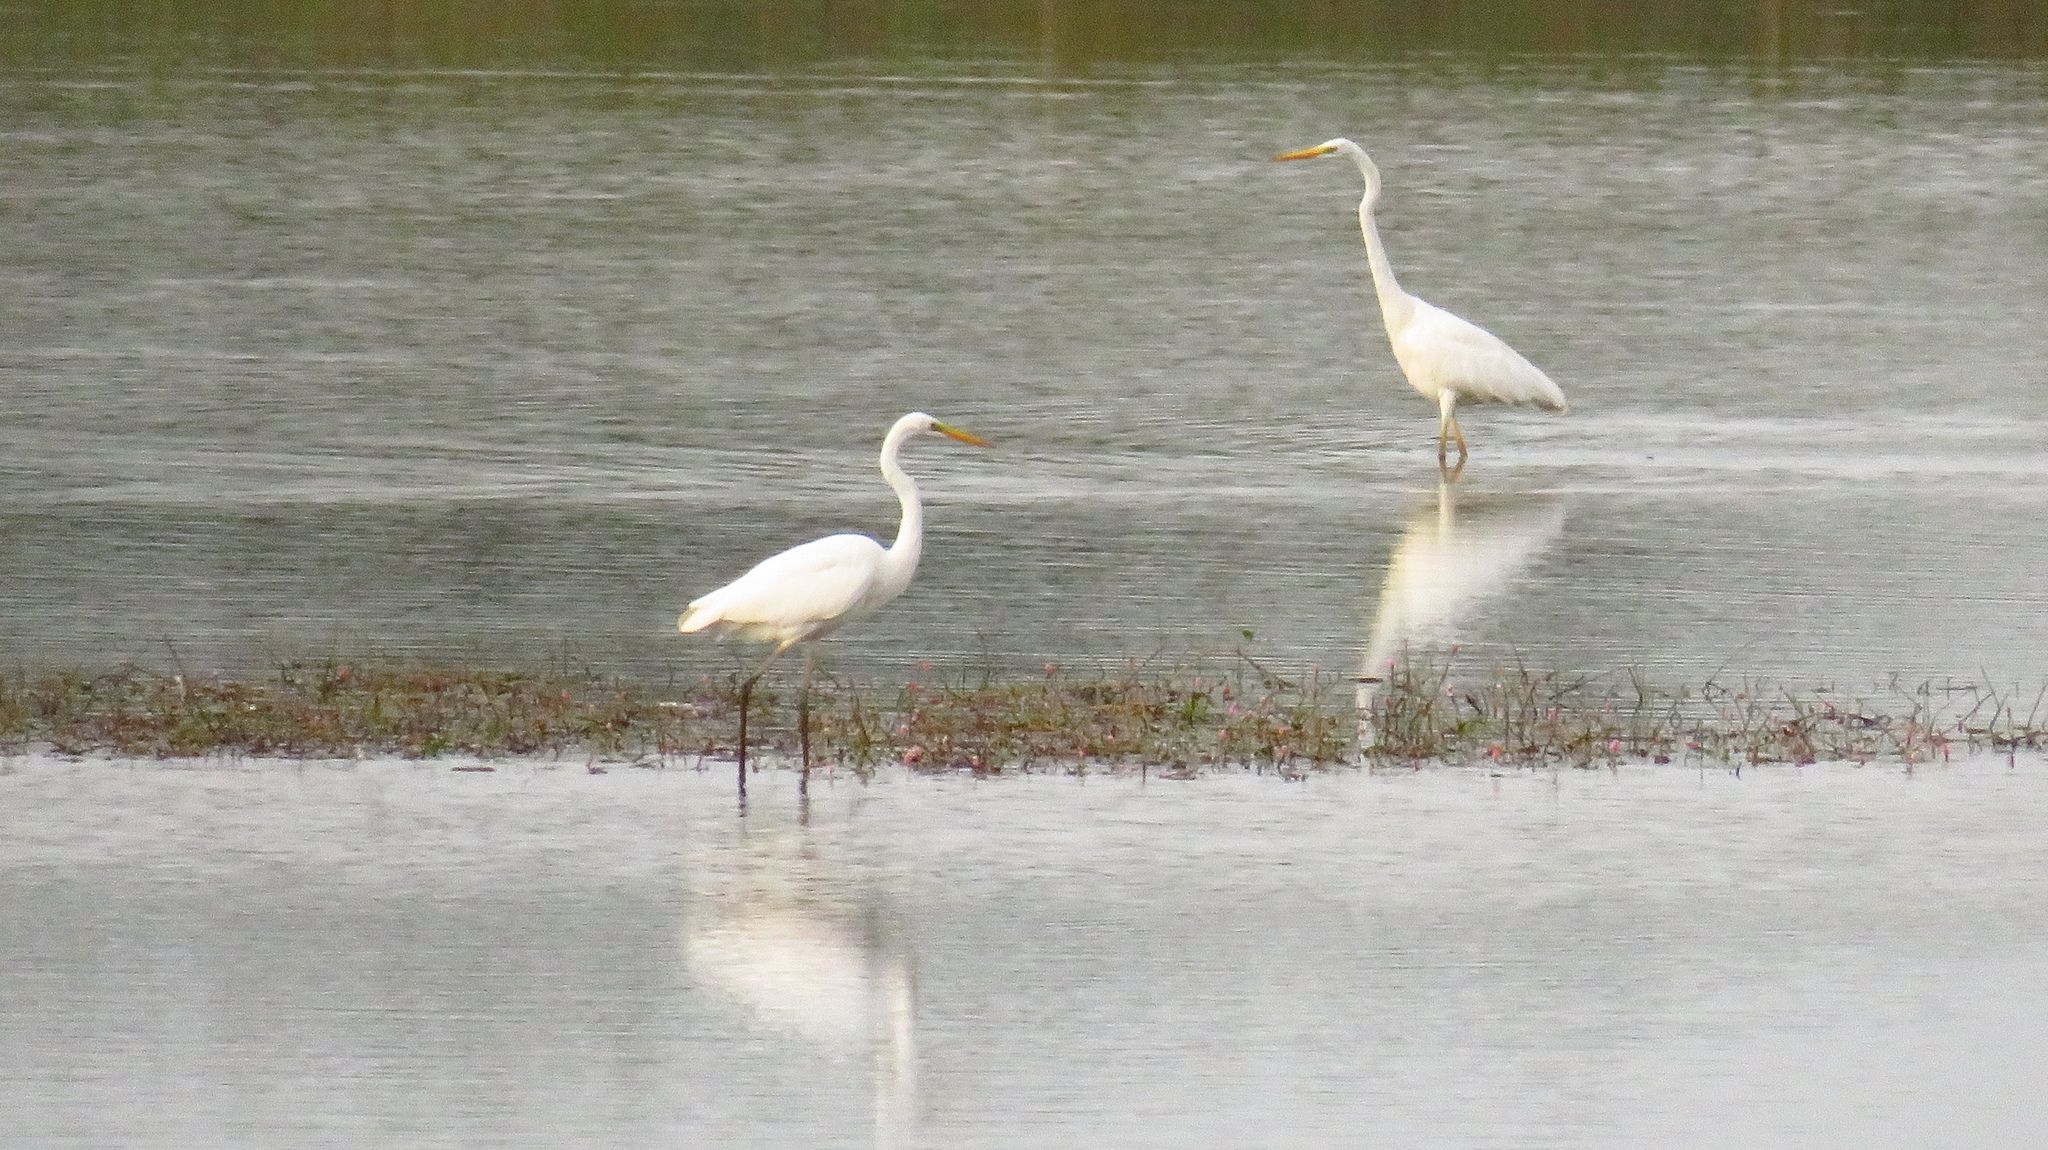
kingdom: Animalia
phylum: Chordata
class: Aves
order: Pelecaniformes
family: Ardeidae
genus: Ardea
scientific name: Ardea alba
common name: Great egret
